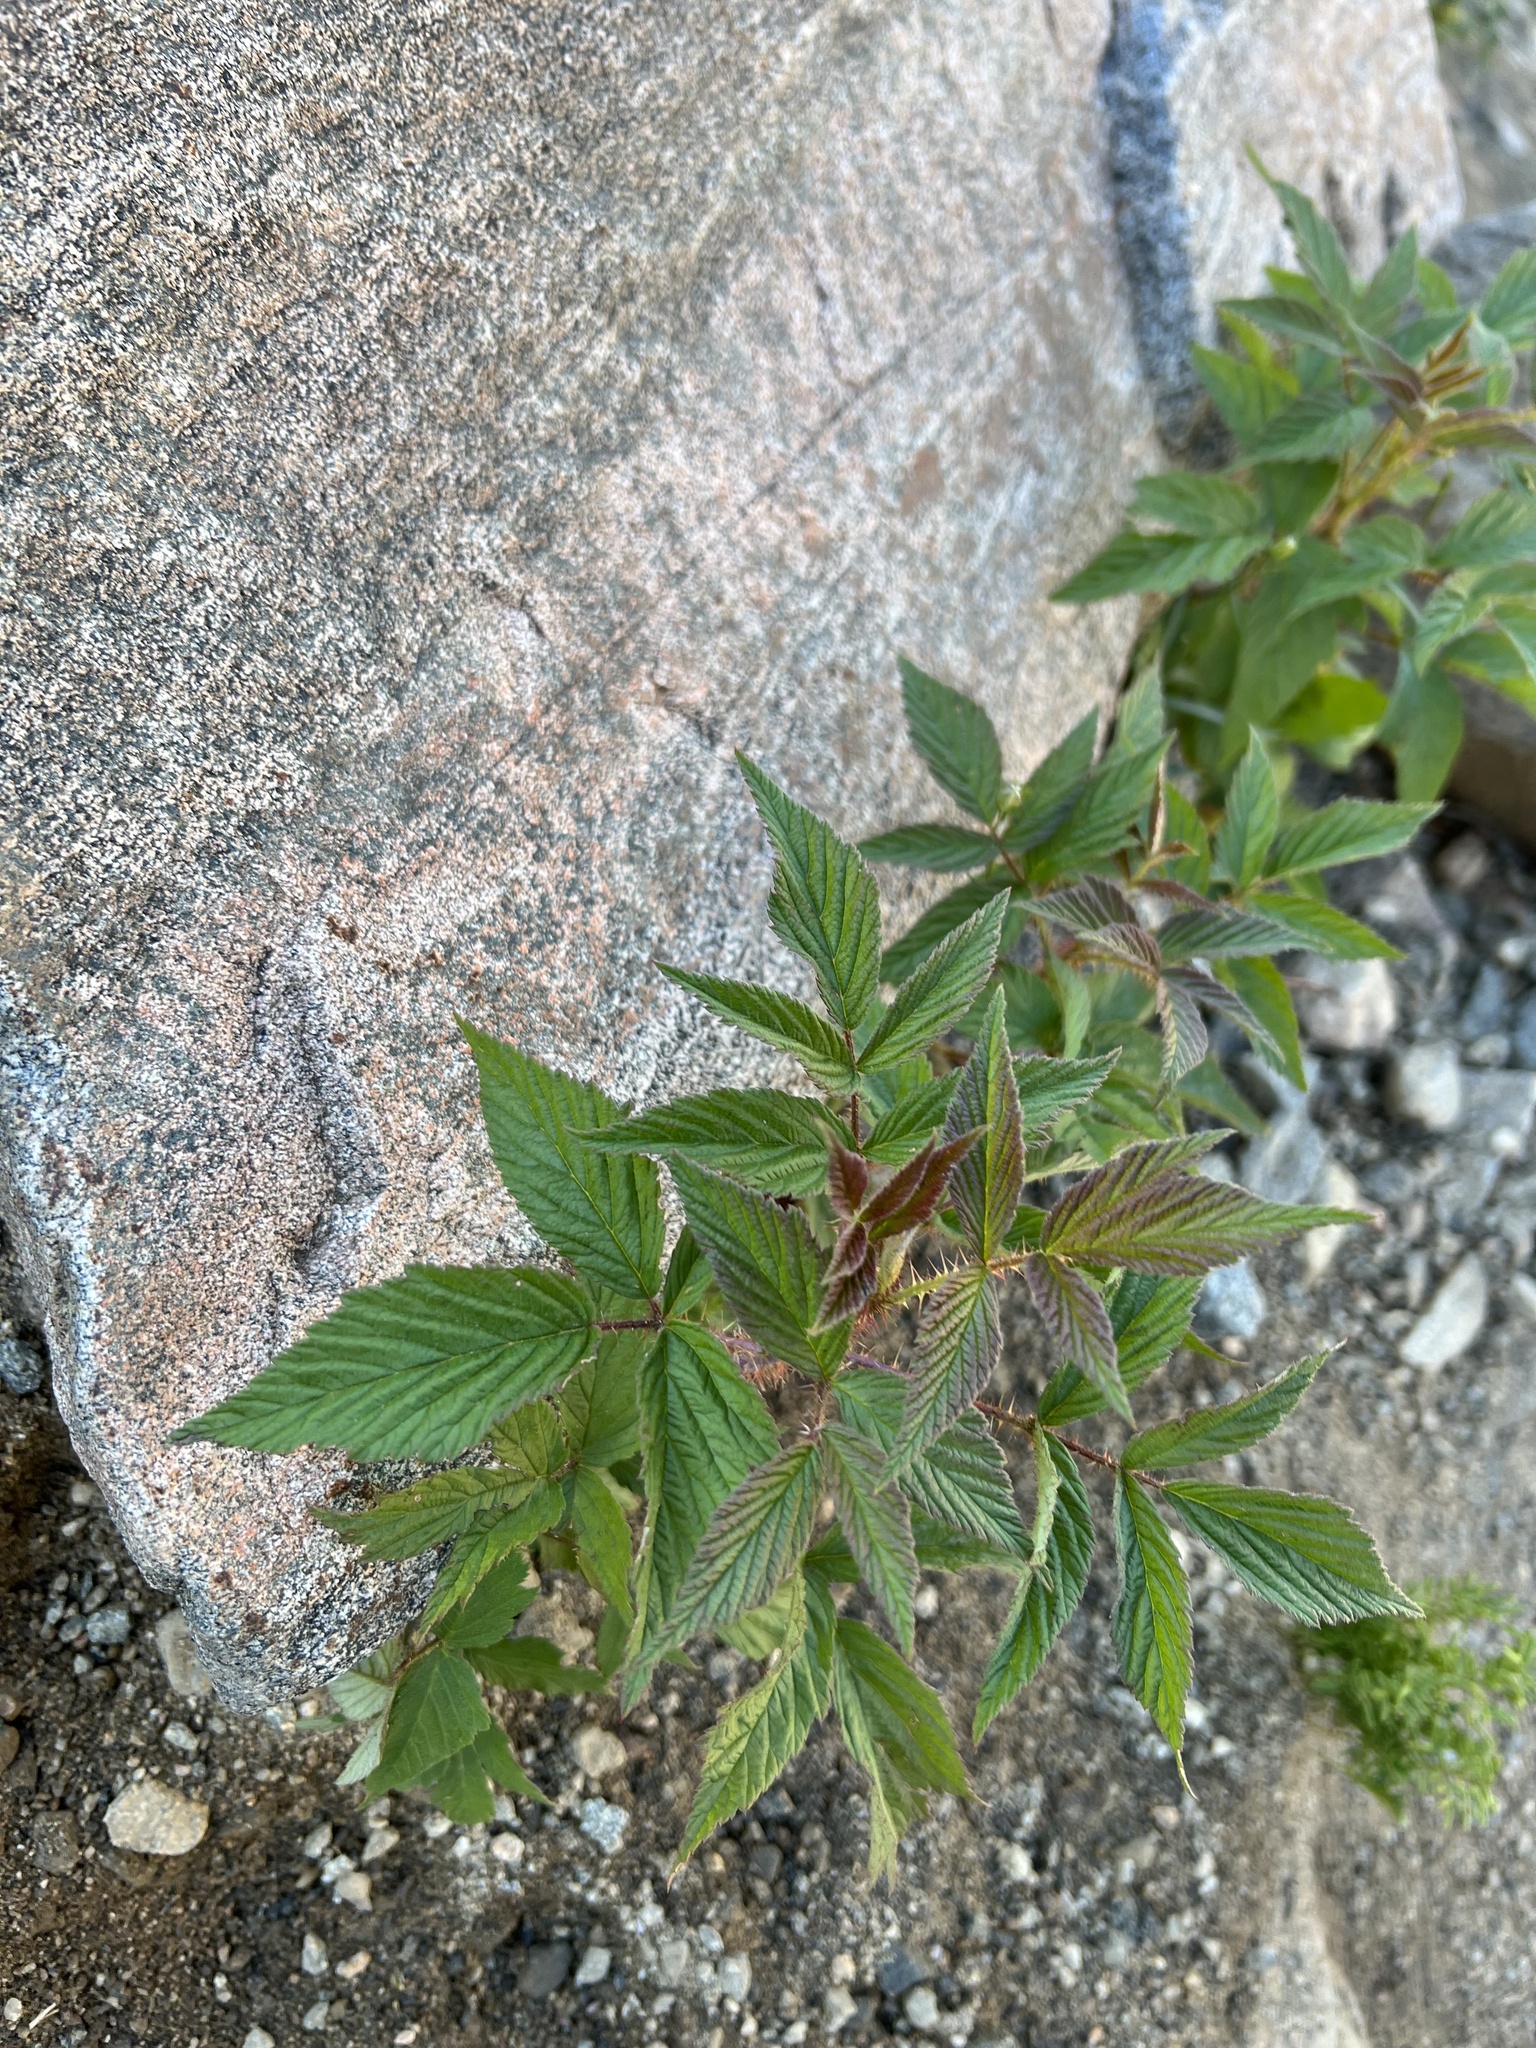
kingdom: Plantae
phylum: Tracheophyta
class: Magnoliopsida
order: Rosales
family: Rosaceae
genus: Rubus
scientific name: Rubus idaeus
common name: Raspberry
